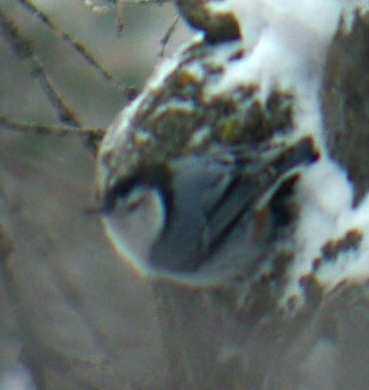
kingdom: Animalia
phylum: Chordata
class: Aves
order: Passeriformes
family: Sittidae
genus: Sitta
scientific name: Sitta carolinensis
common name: White-breasted nuthatch
